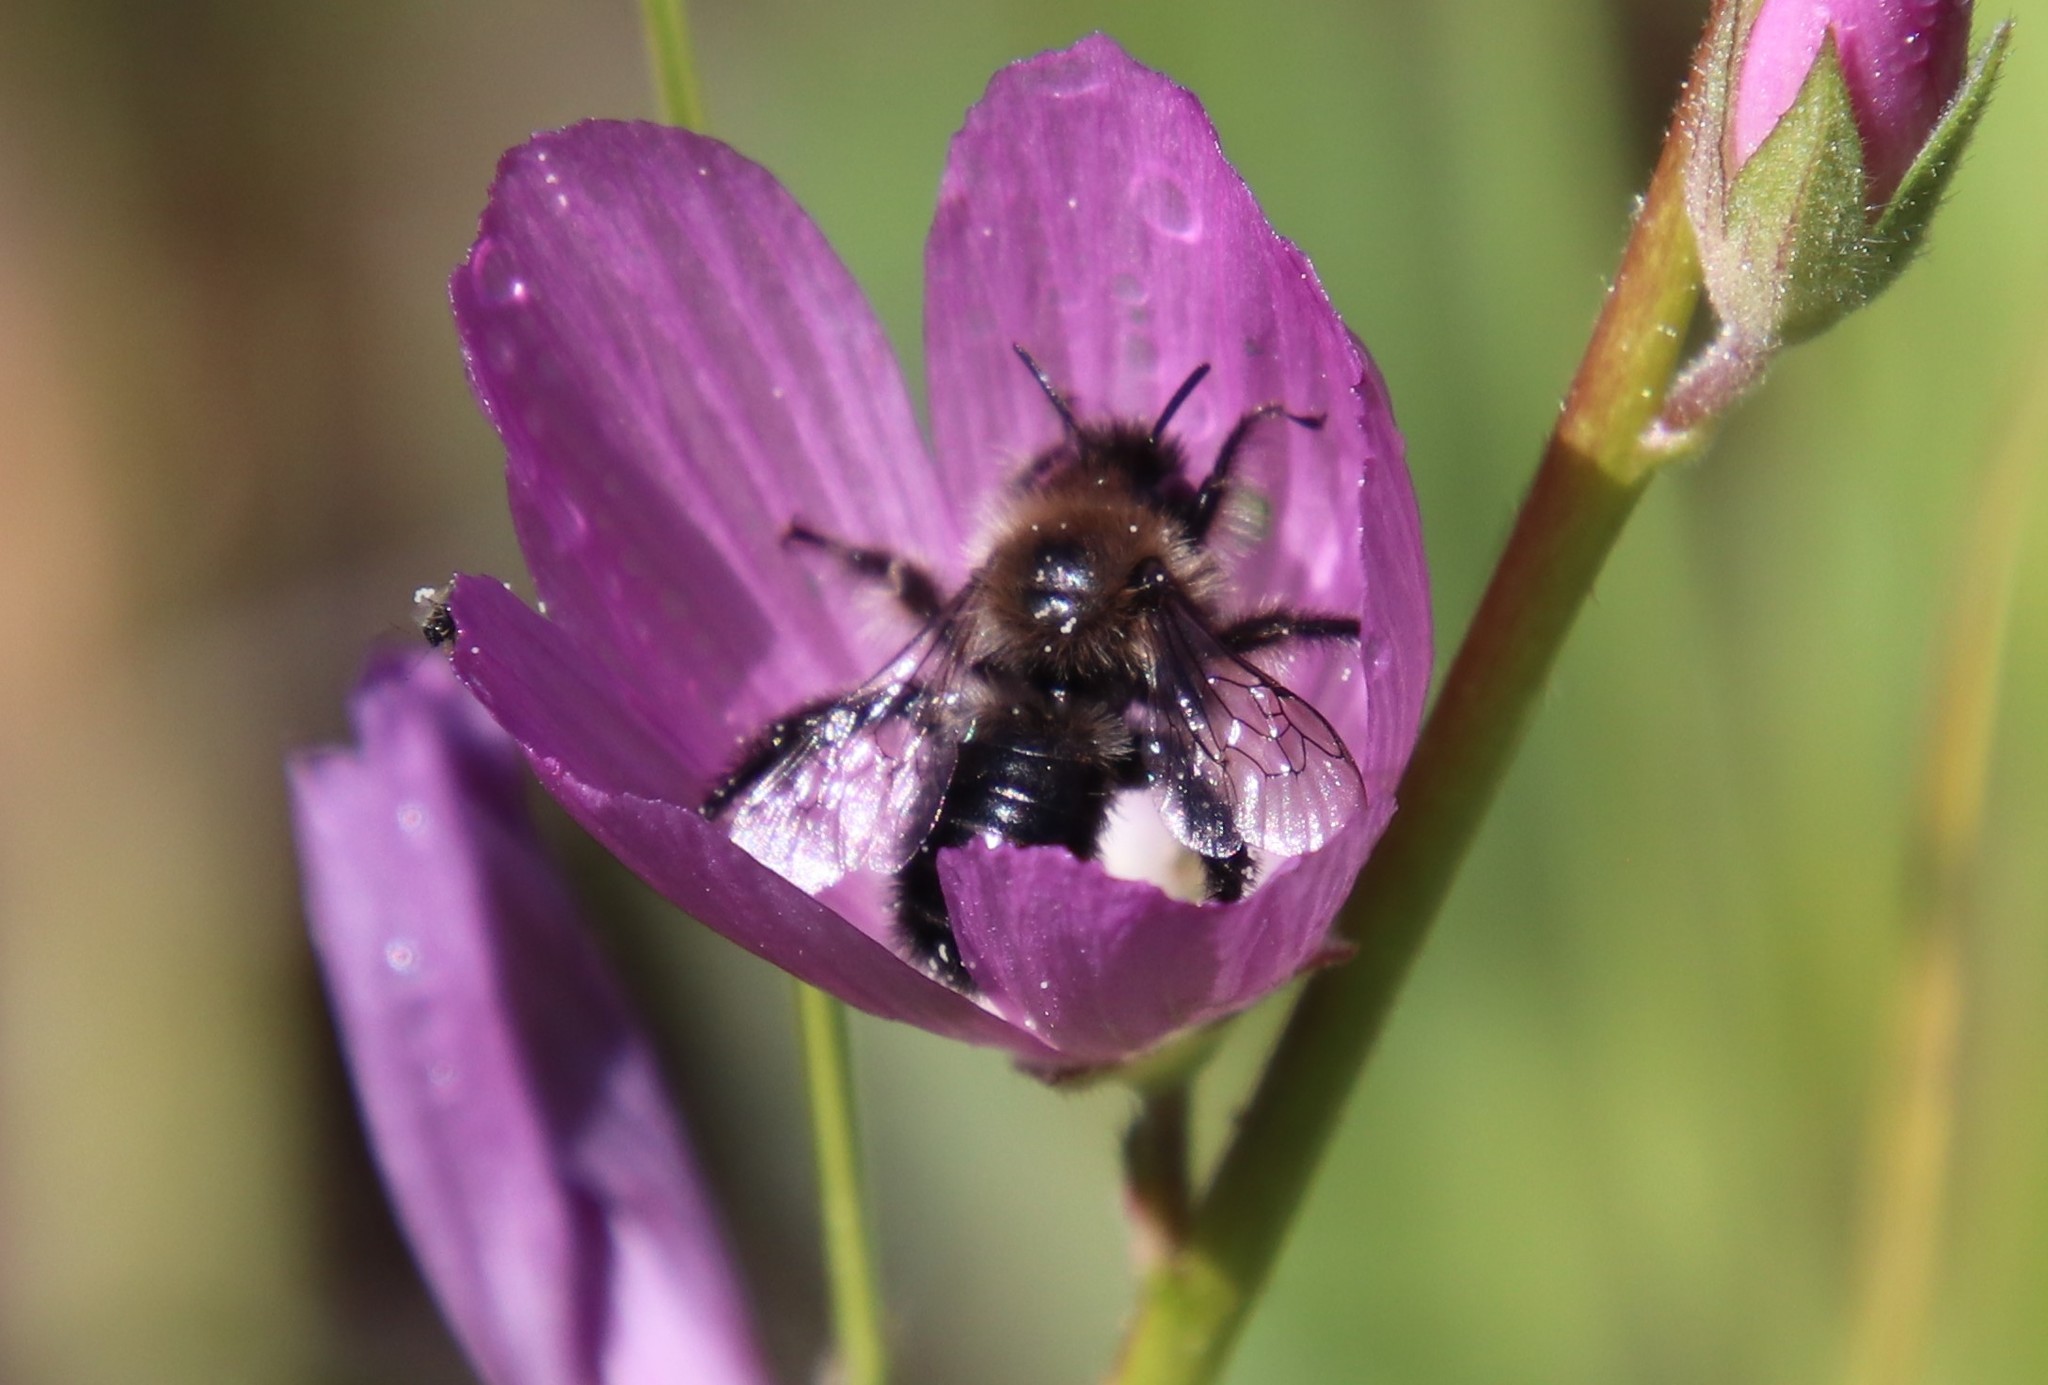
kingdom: Animalia
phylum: Arthropoda
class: Insecta
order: Hymenoptera
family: Apidae
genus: Diadasia
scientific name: Diadasia nigrifrons
